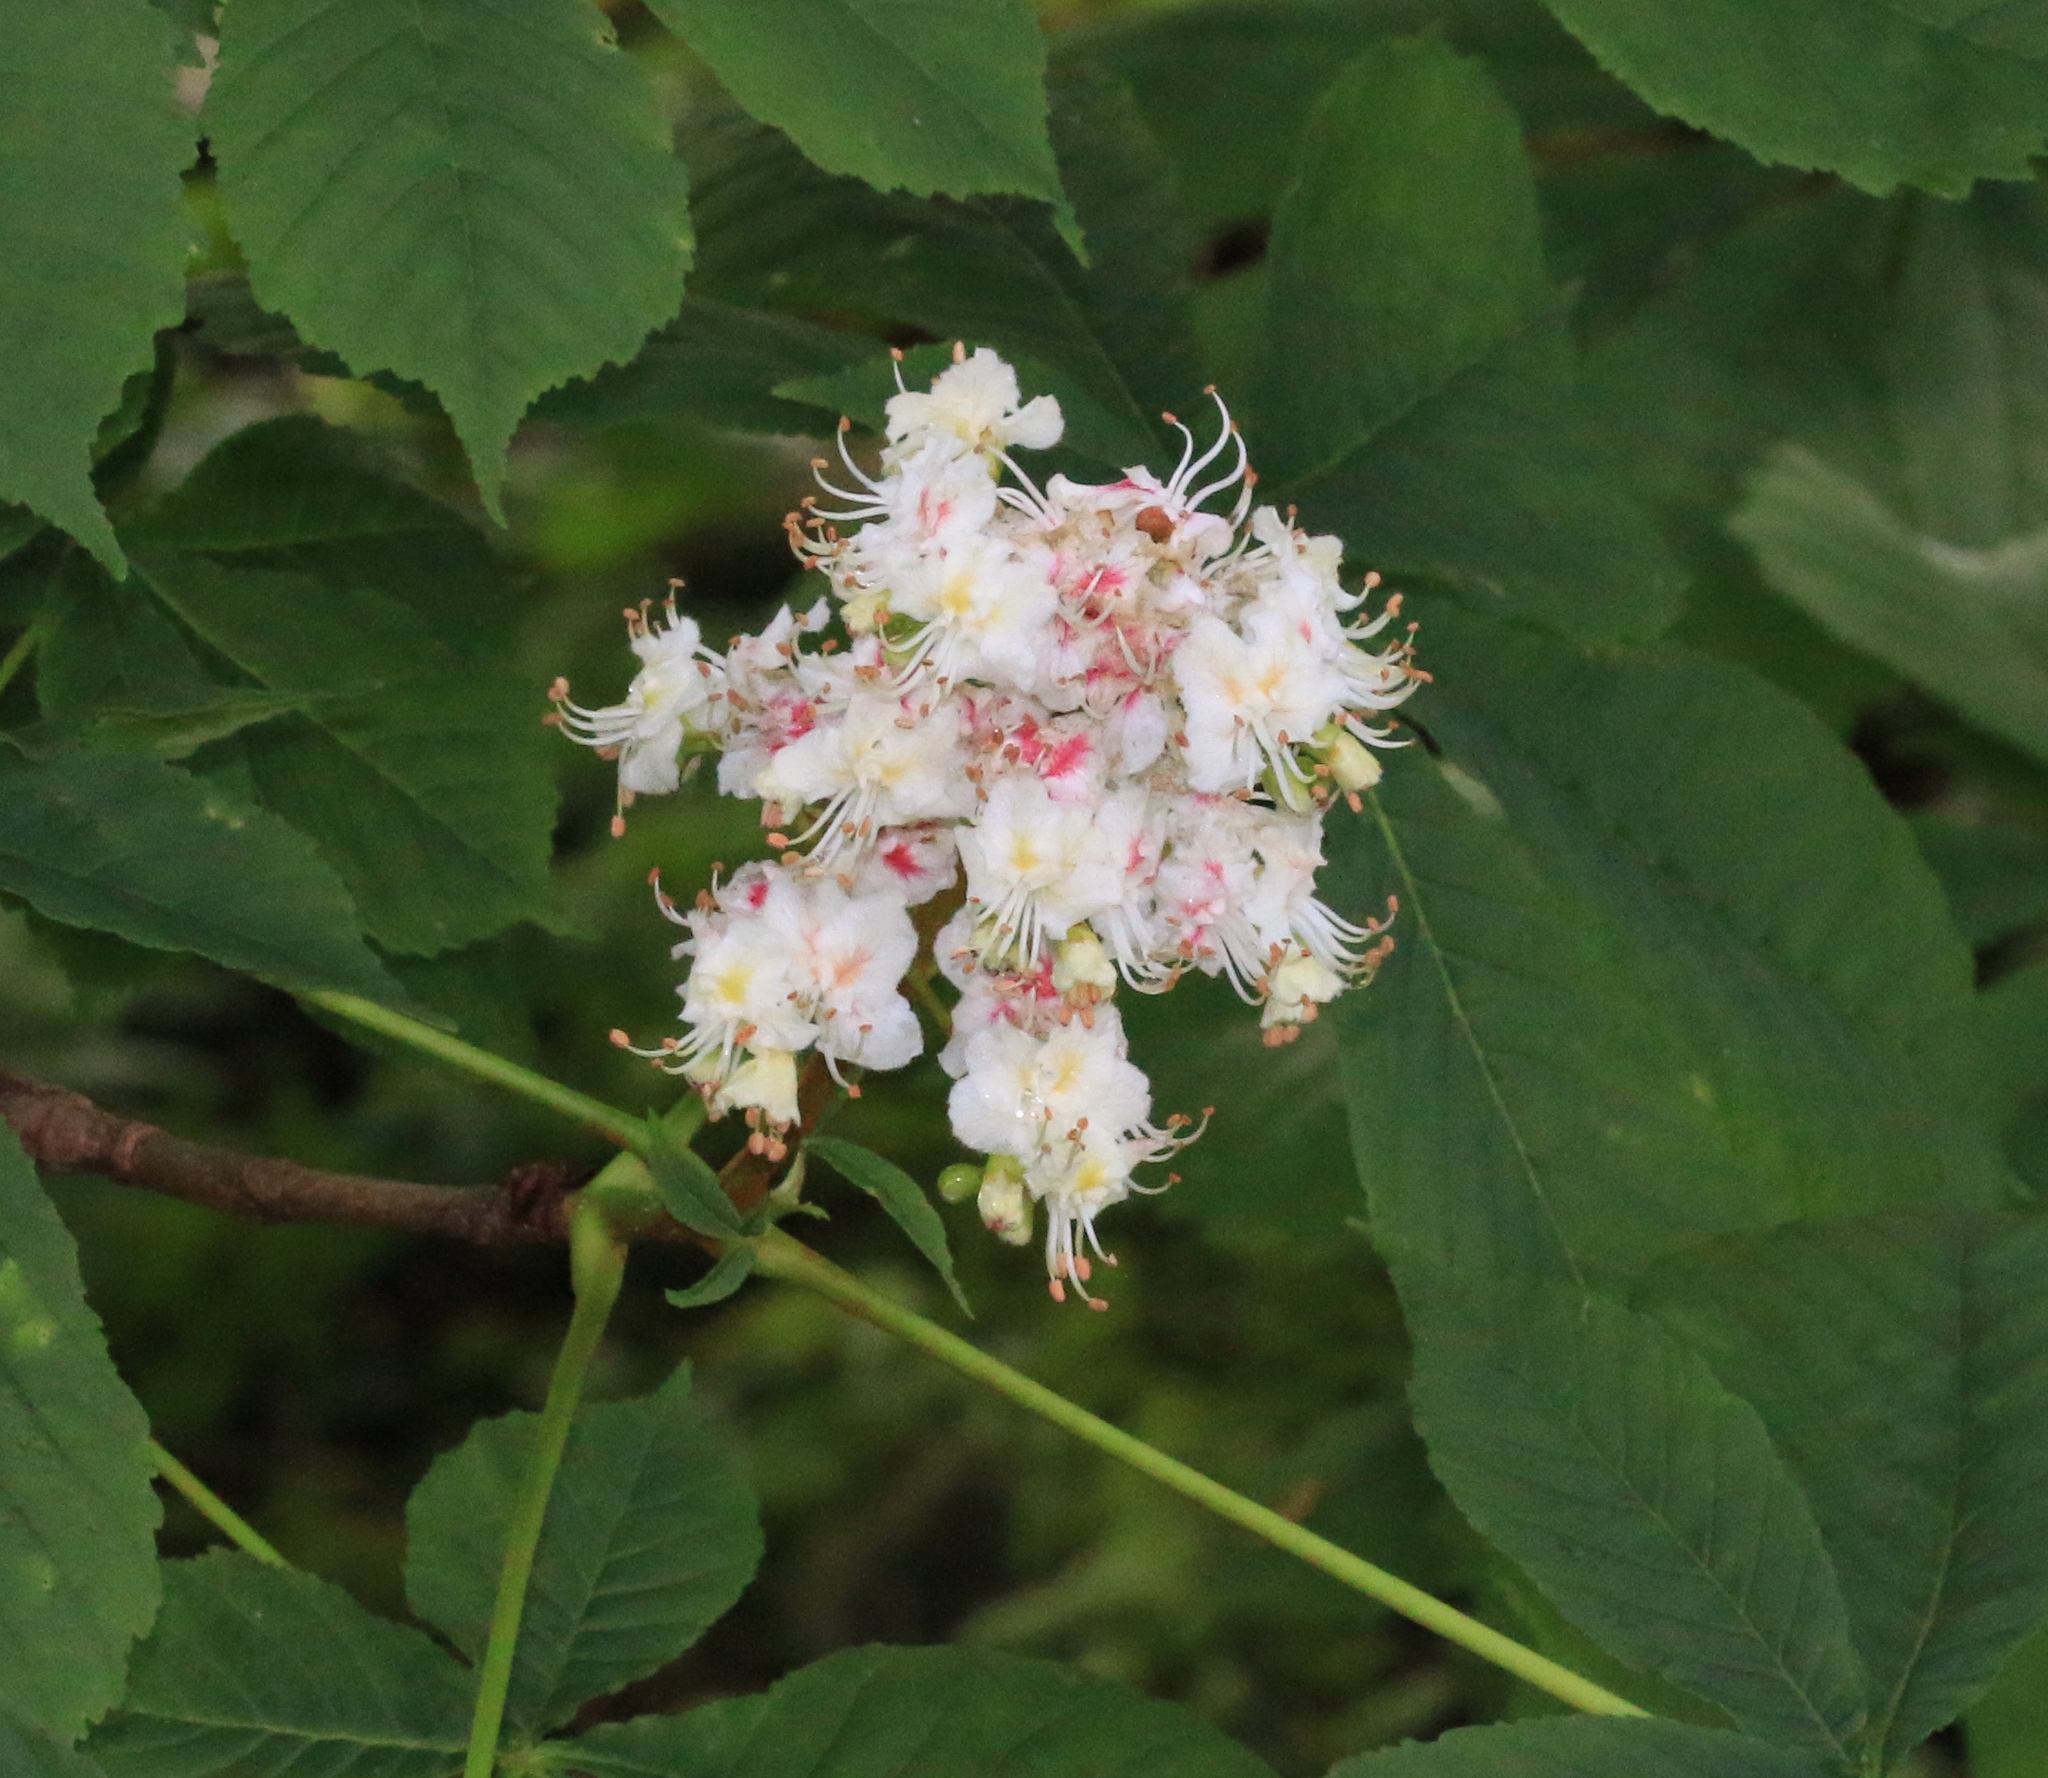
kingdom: Plantae
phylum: Tracheophyta
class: Magnoliopsida
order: Sapindales
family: Sapindaceae
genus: Aesculus
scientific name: Aesculus hippocastanum
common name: Horse-chestnut
